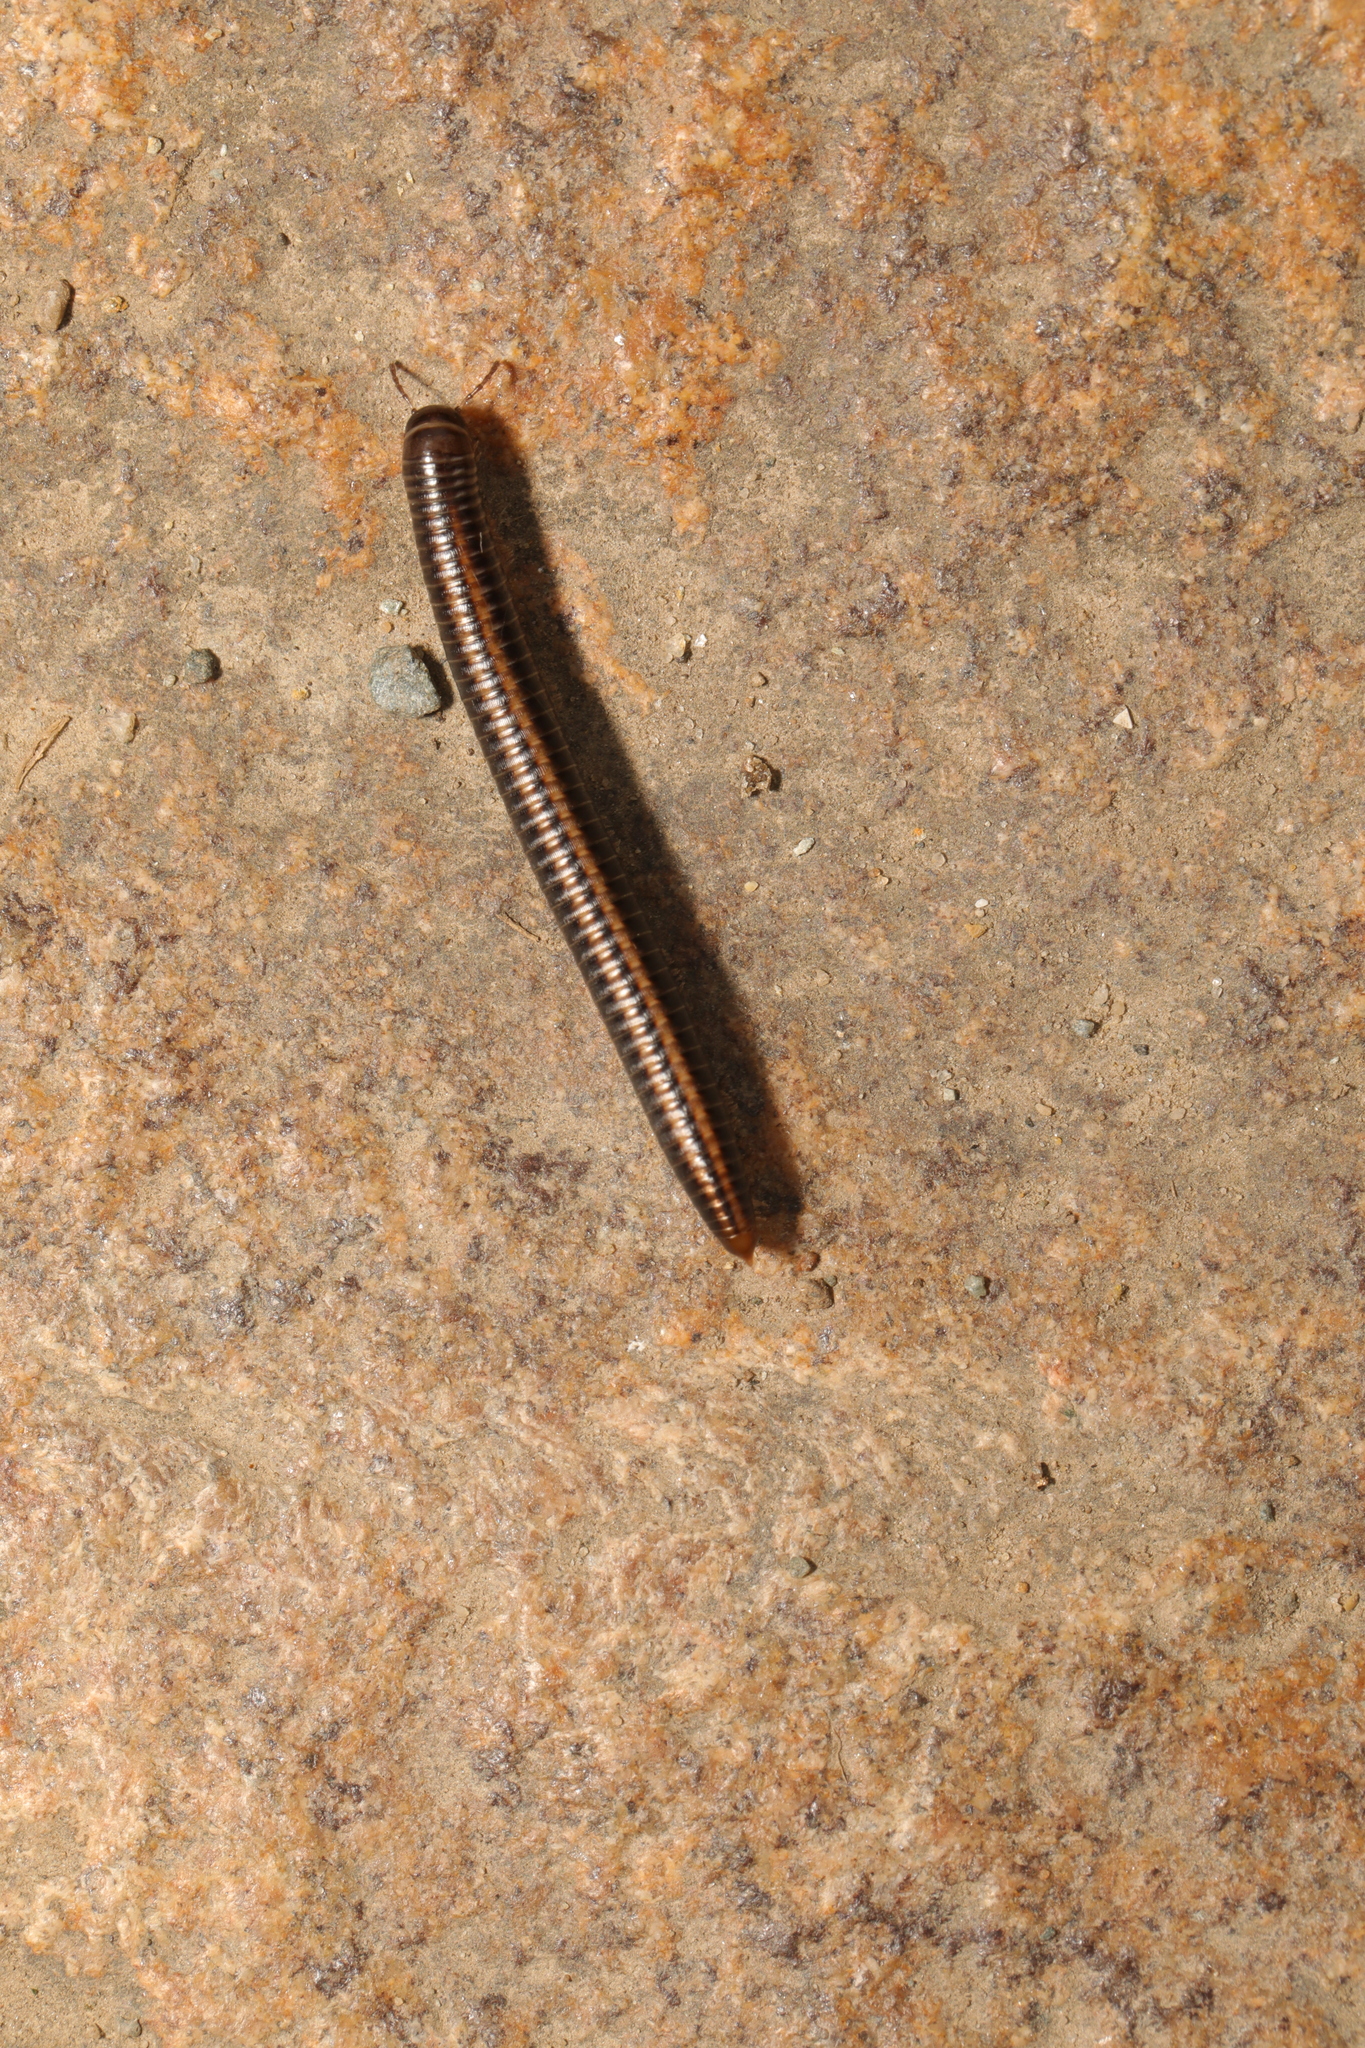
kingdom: Animalia
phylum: Arthropoda
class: Diplopoda
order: Julida
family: Julidae
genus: Ommatoiulus
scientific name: Ommatoiulus sabulosus
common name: Striped millipede
